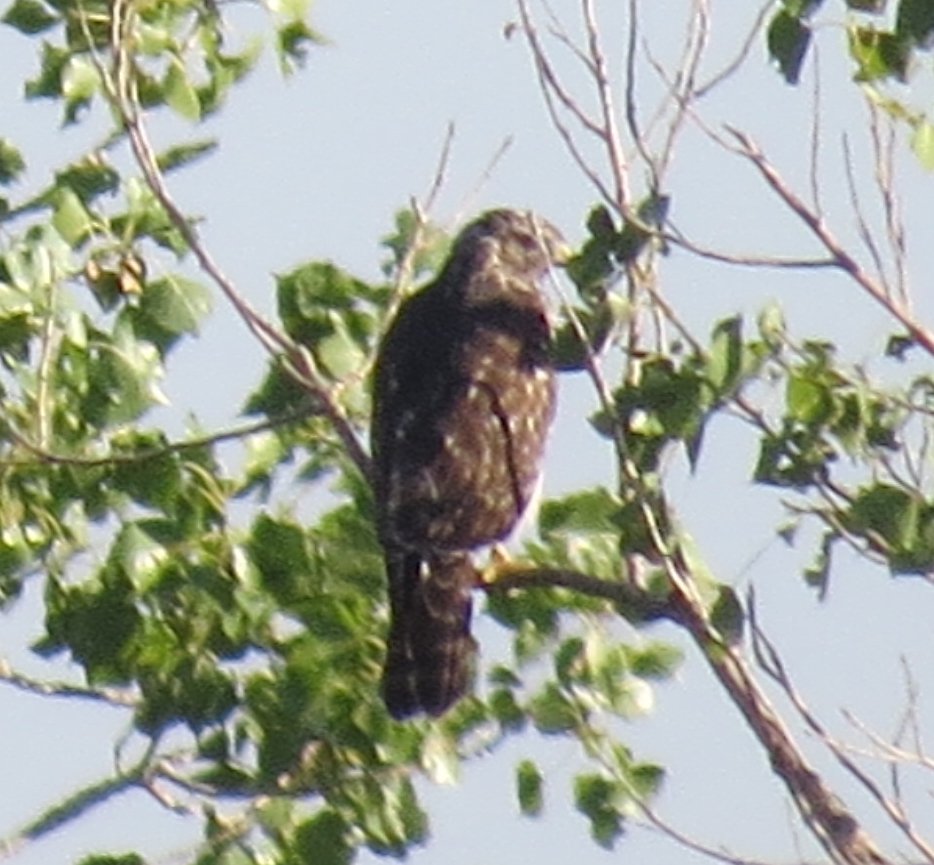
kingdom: Animalia
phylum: Chordata
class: Aves
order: Accipitriformes
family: Accipitridae
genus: Buteo
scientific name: Buteo lineatus
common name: Red-shouldered hawk
